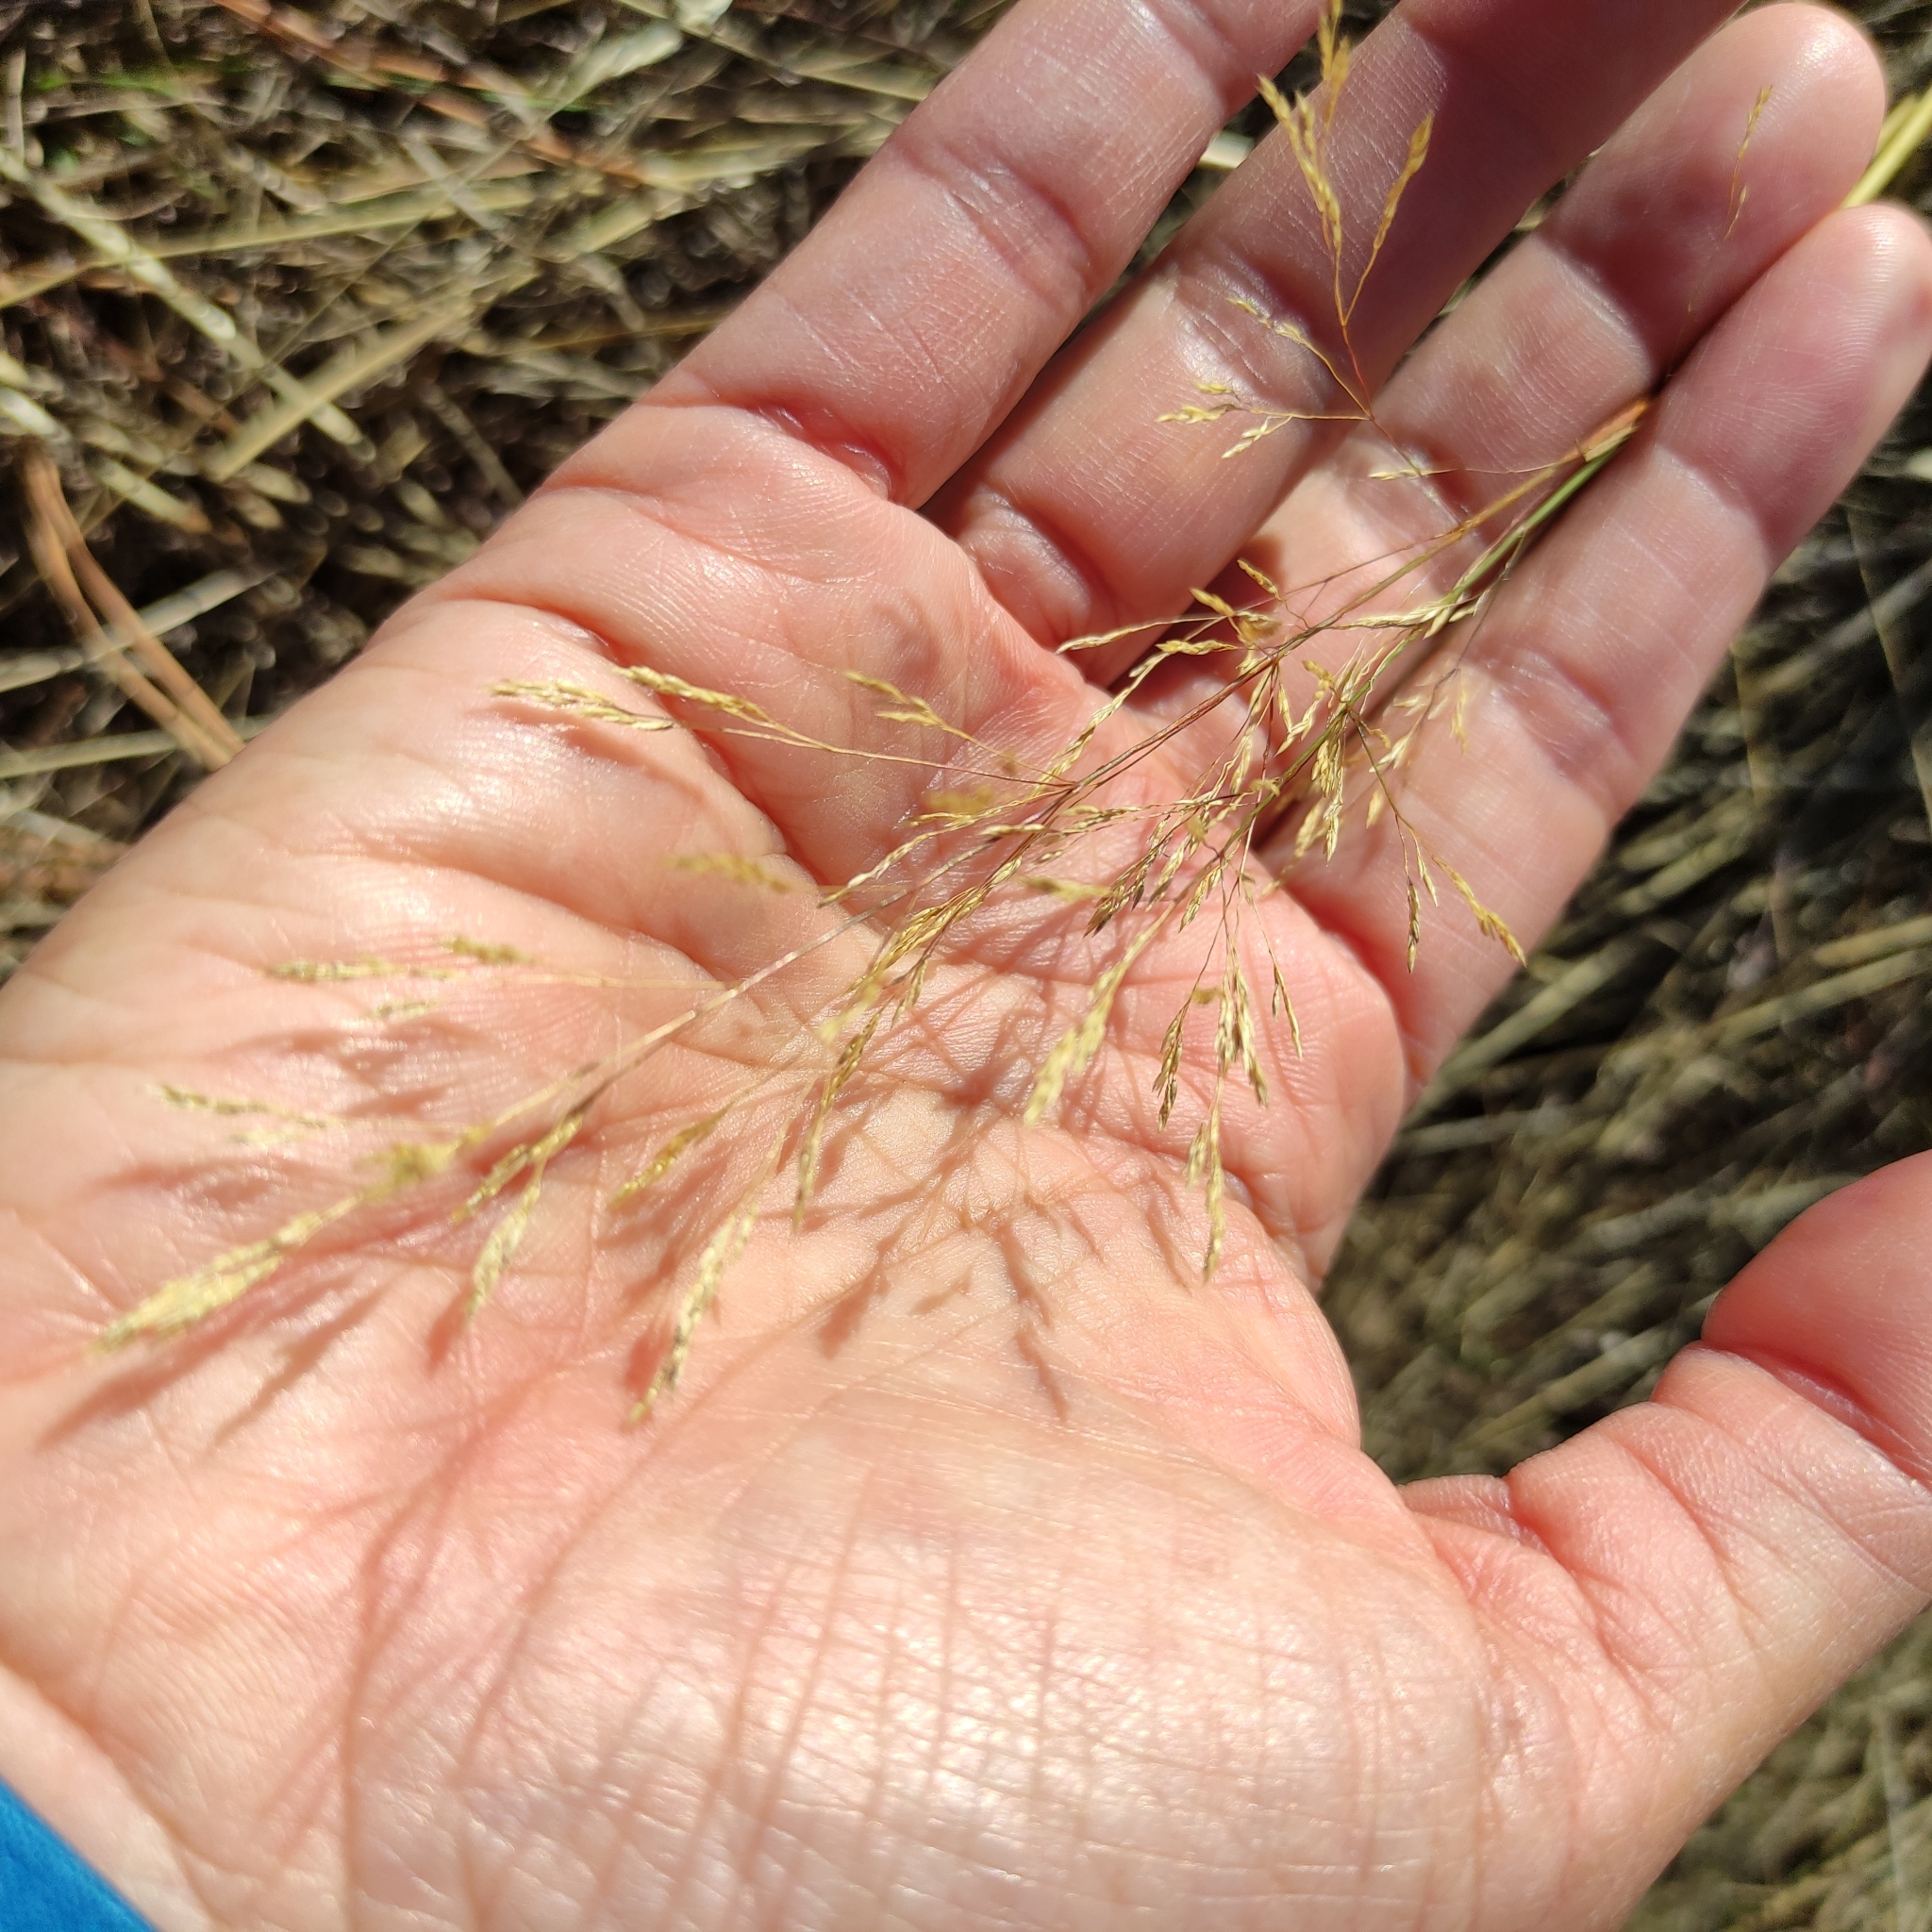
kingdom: Plantae
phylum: Tracheophyta
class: Liliopsida
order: Poales
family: Poaceae
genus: Agrostis
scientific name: Agrostis capillaris
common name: Colonial bentgrass
